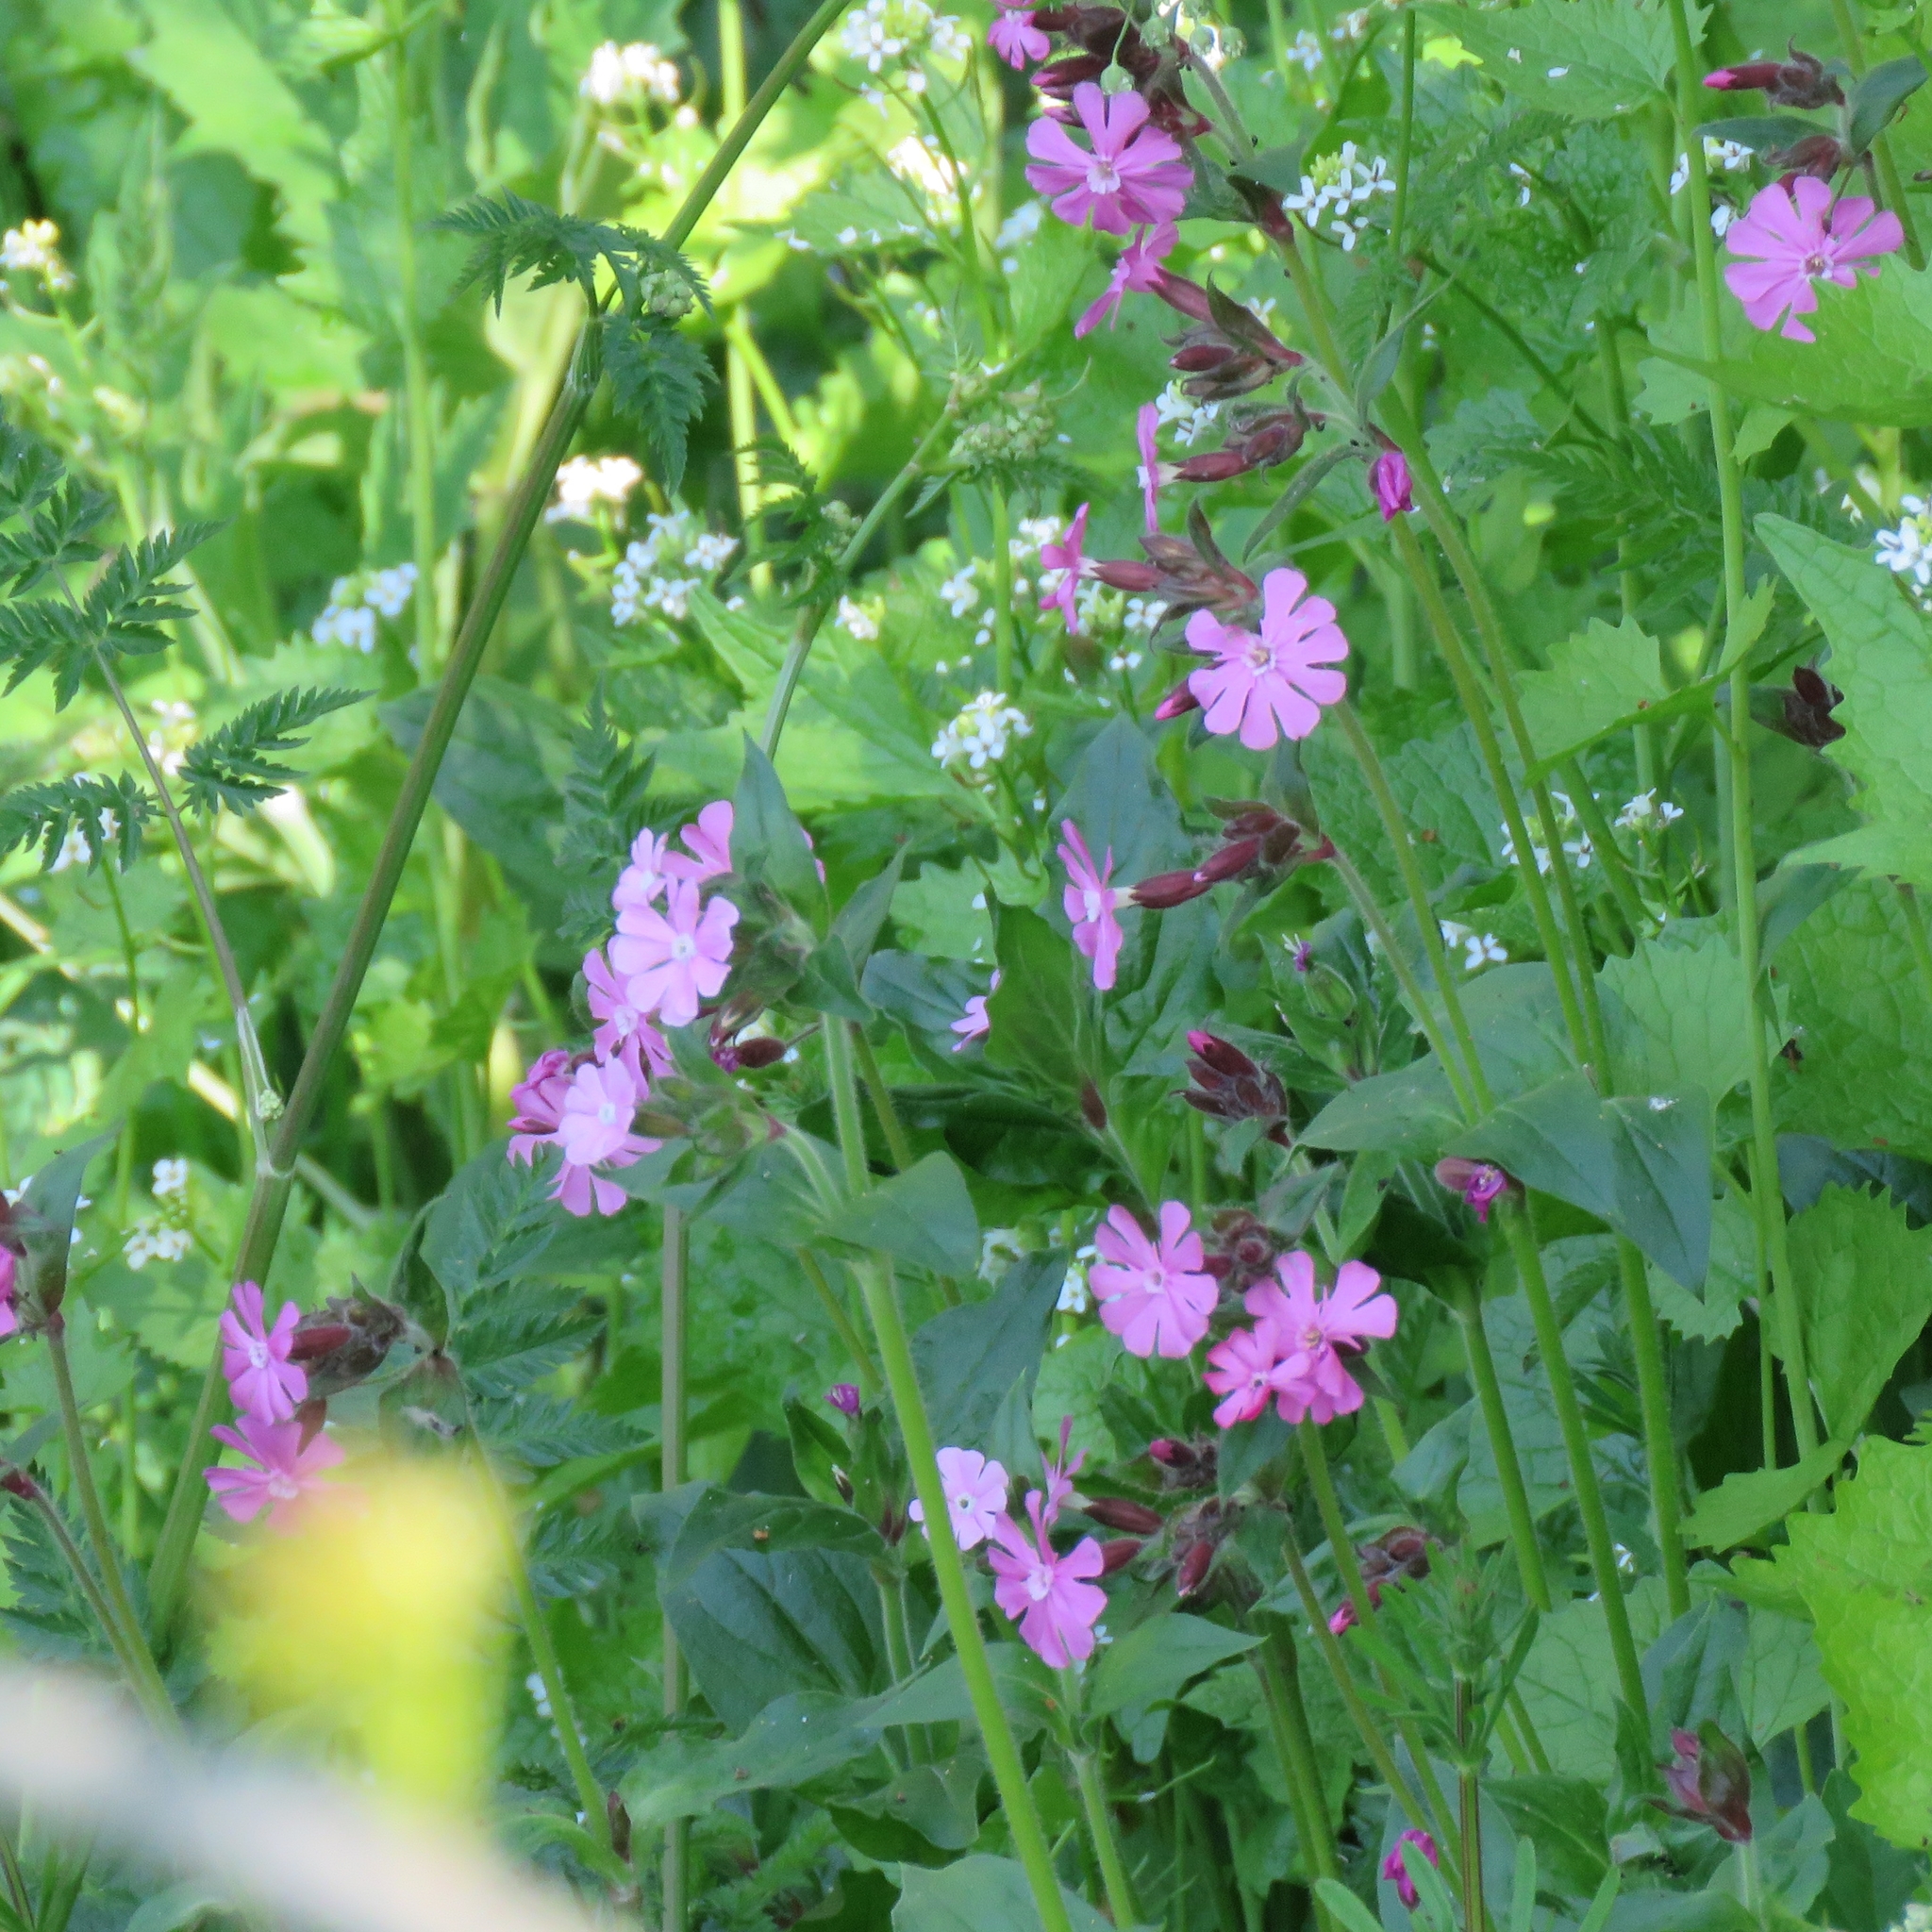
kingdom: Plantae
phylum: Tracheophyta
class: Magnoliopsida
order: Caryophyllales
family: Caryophyllaceae
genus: Silene
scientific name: Silene dioica
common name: Red campion
